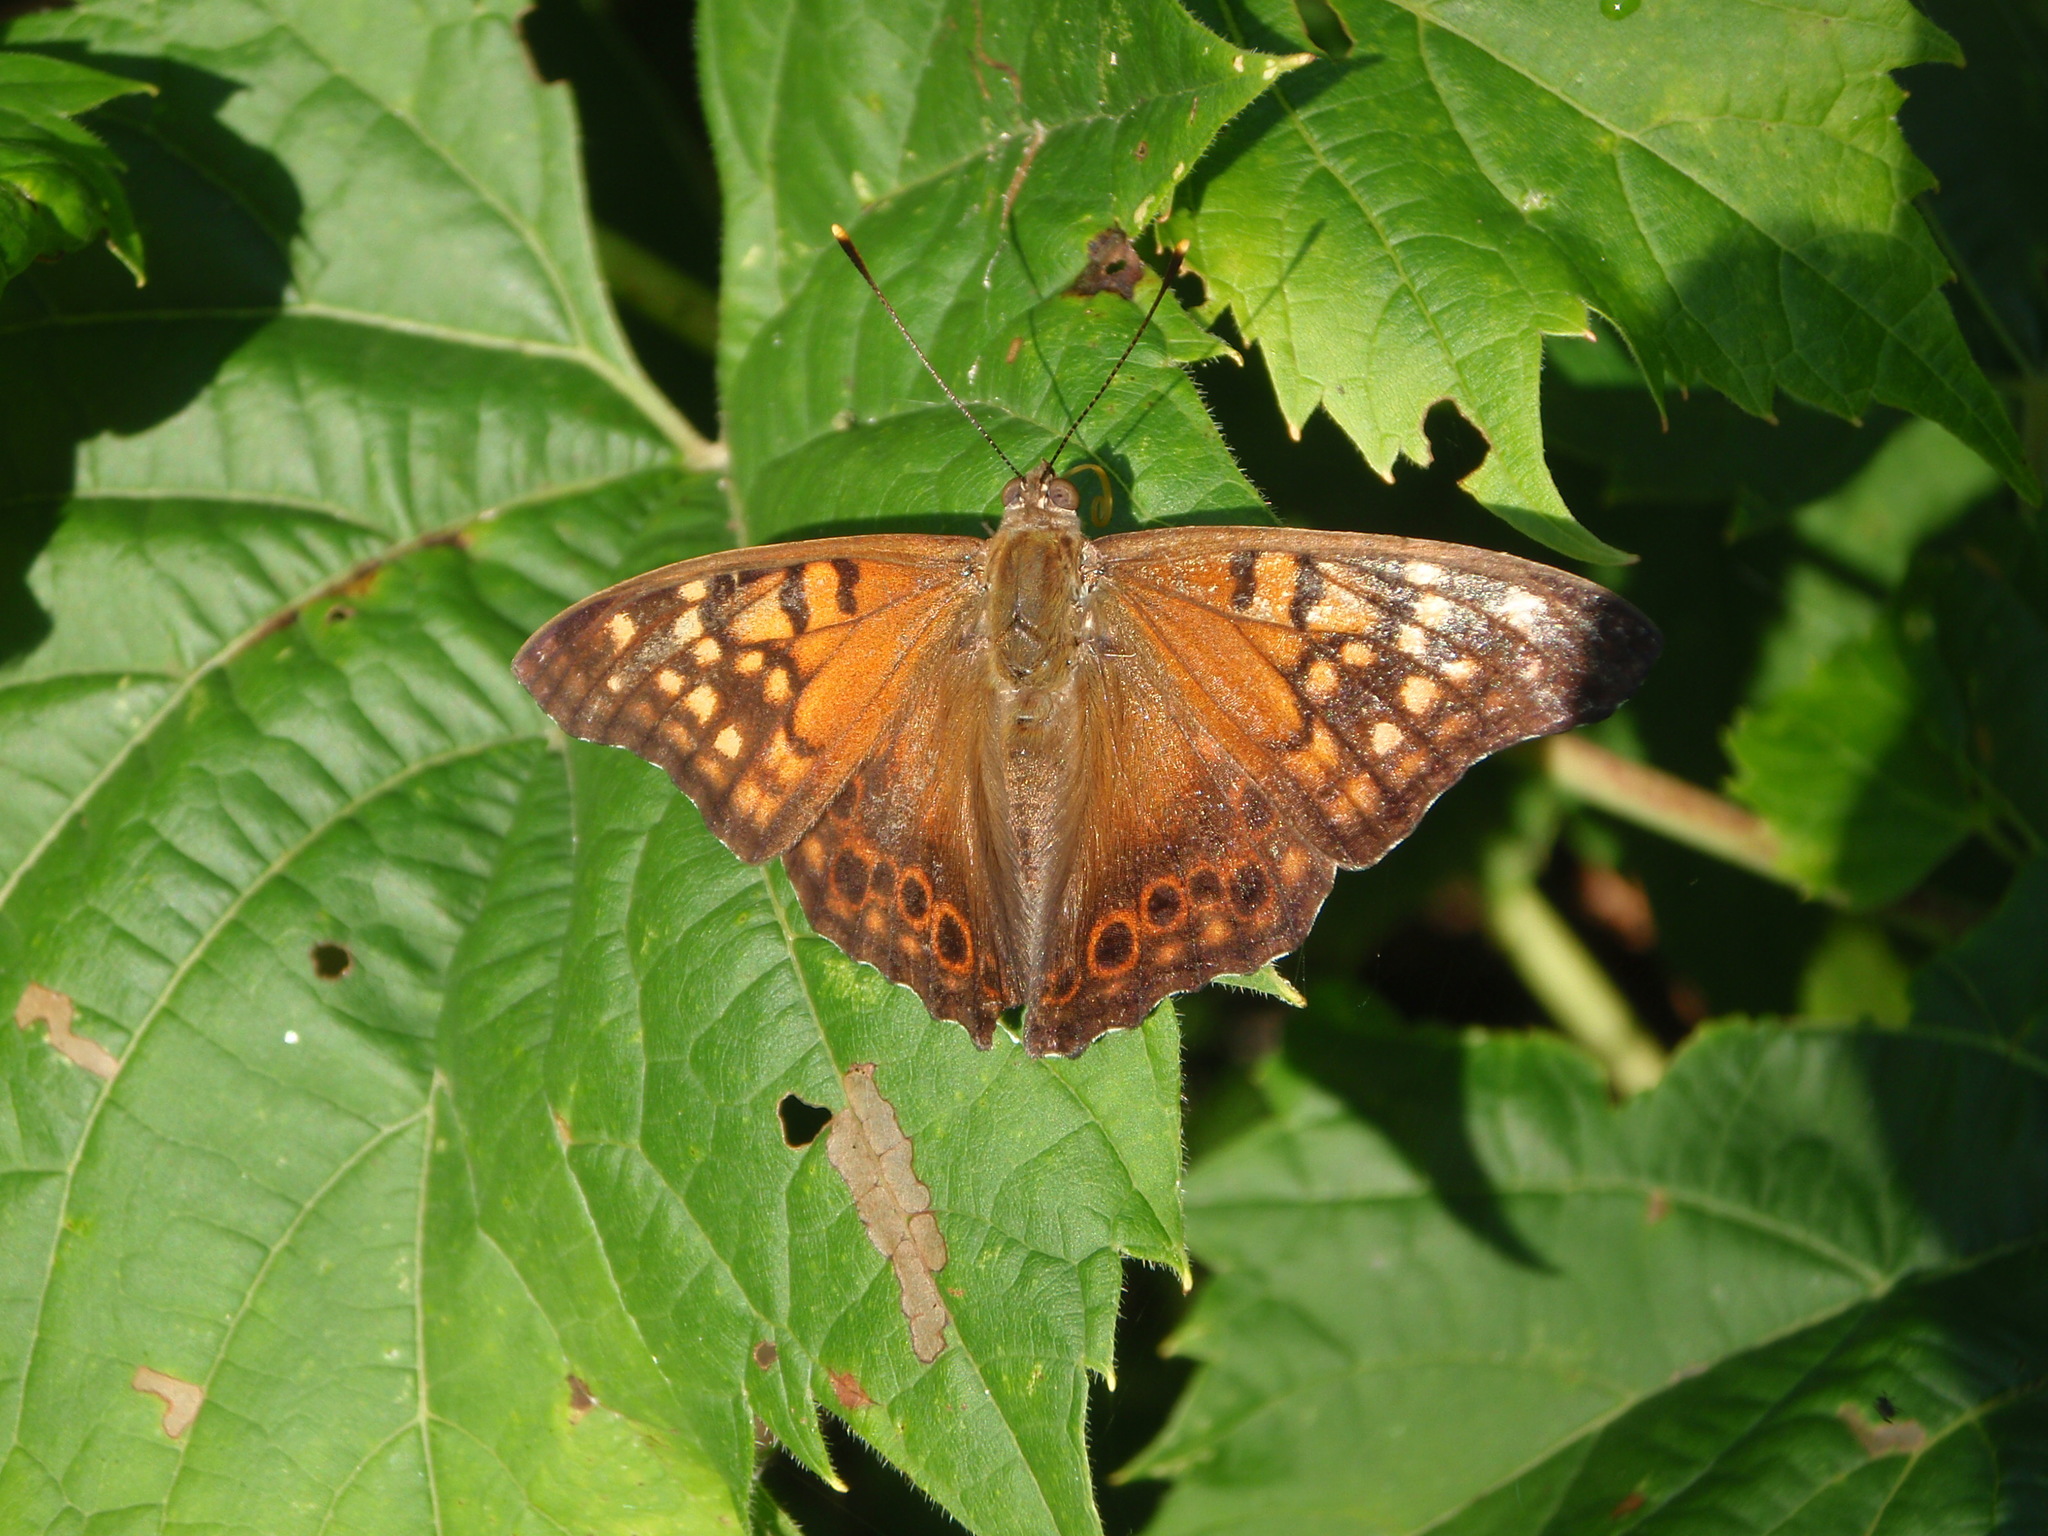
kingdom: Animalia
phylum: Arthropoda
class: Insecta
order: Lepidoptera
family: Nymphalidae
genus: Asterocampa
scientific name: Asterocampa clyton
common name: Tawny emperor
